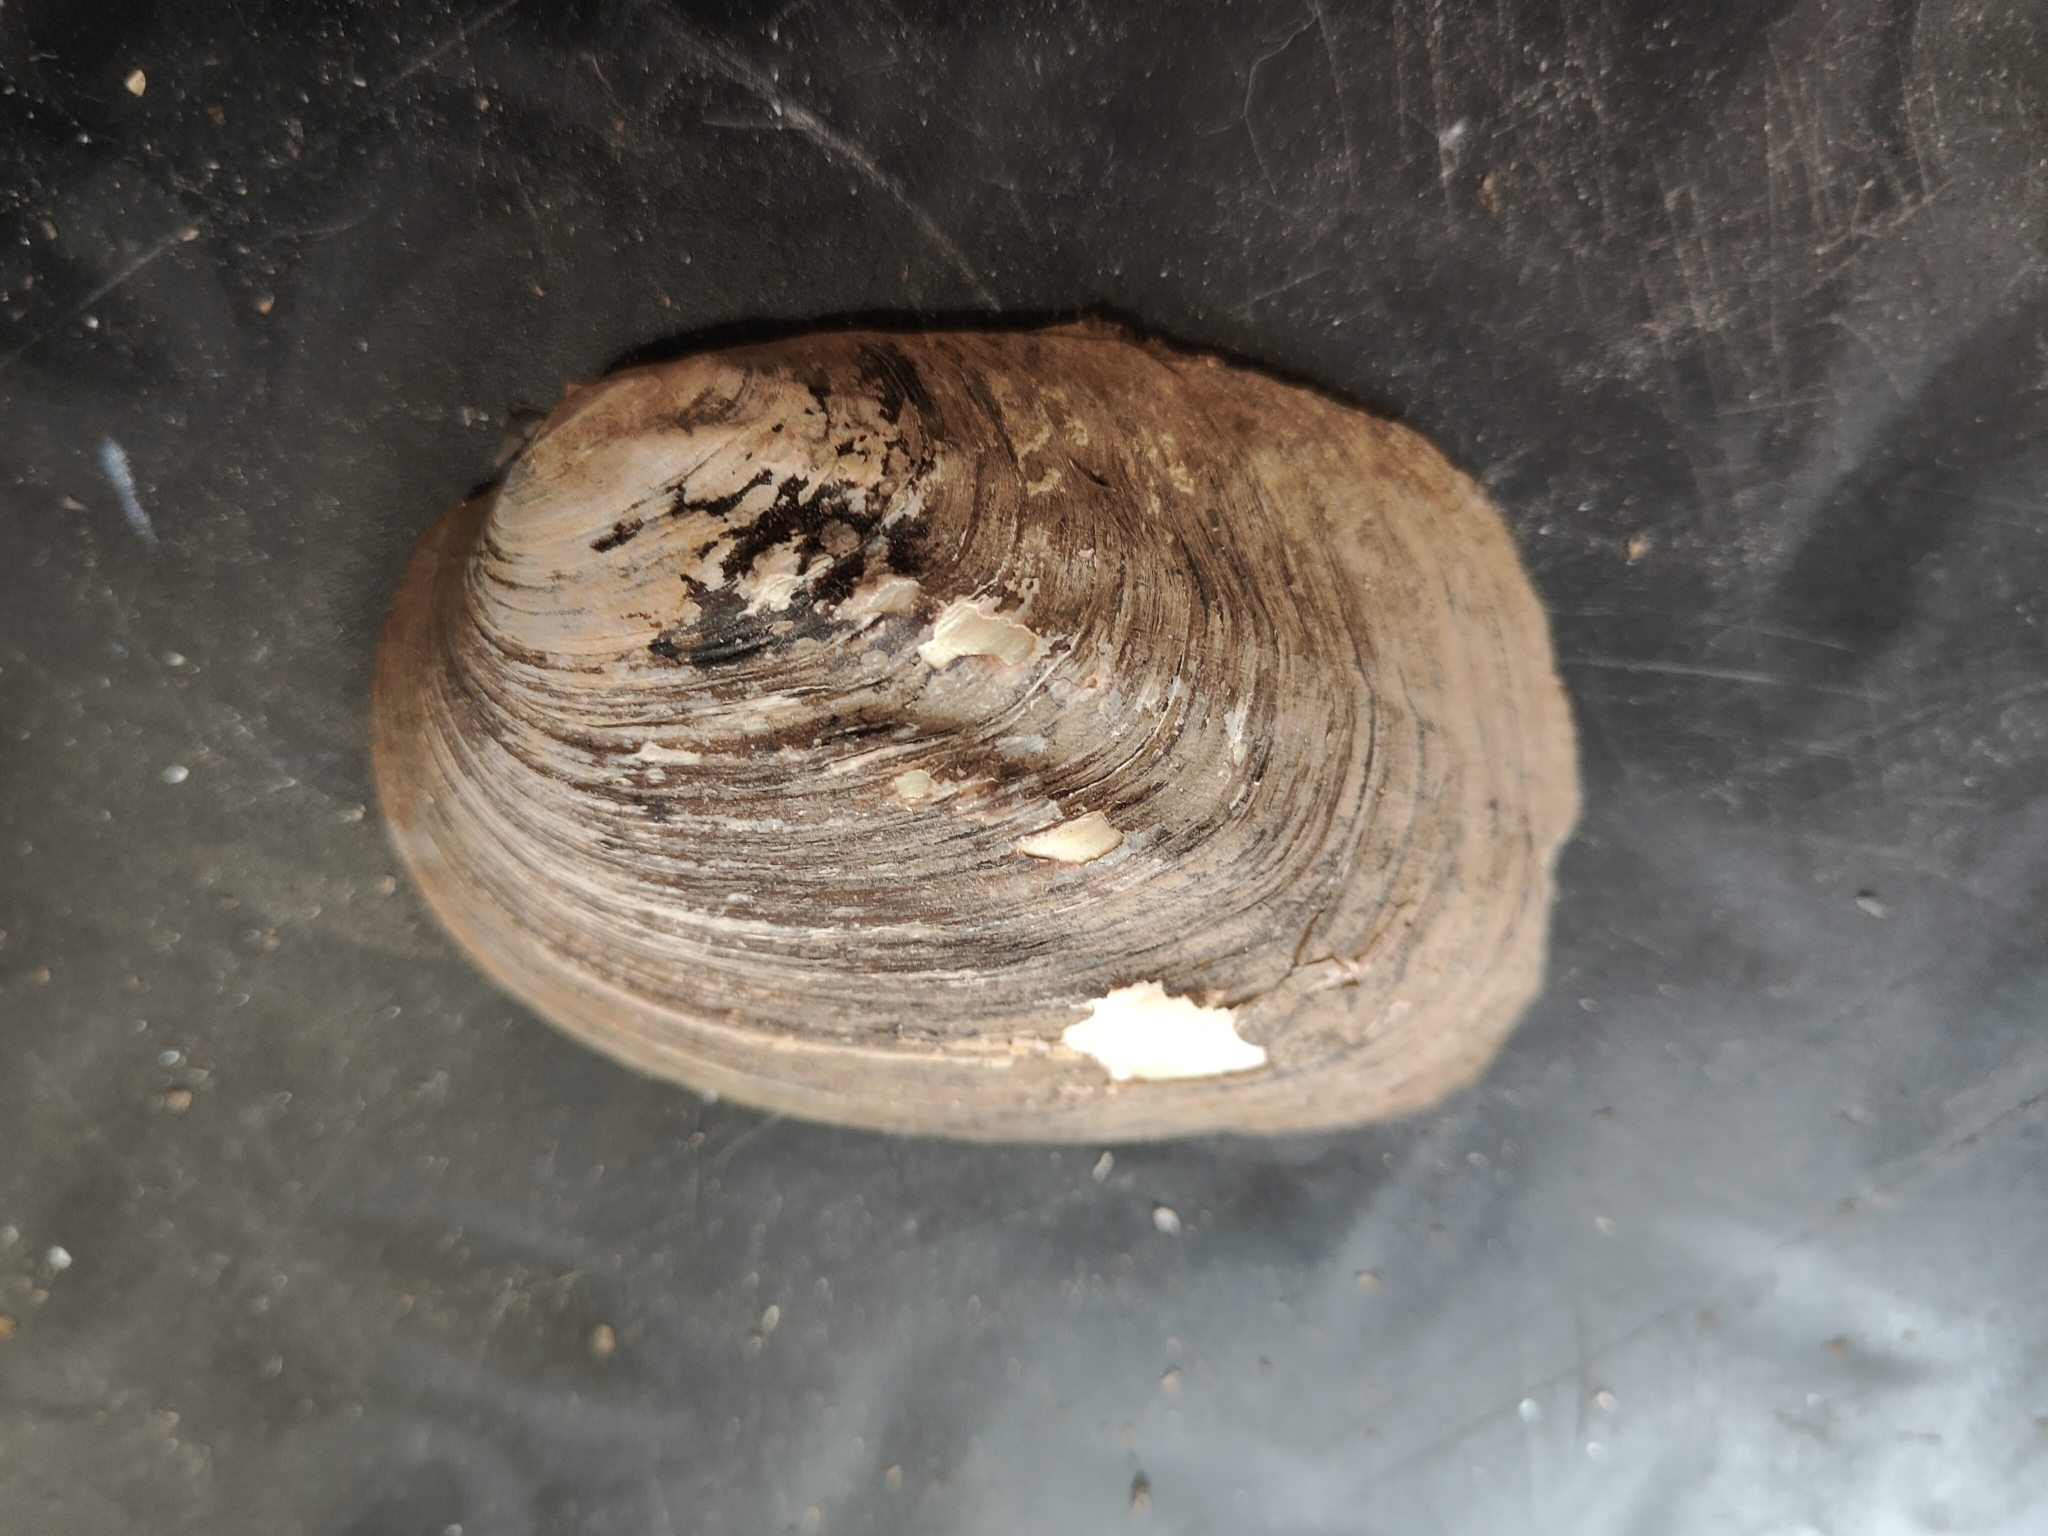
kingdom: Animalia
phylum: Mollusca
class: Bivalvia
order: Unionida
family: Unionidae
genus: Amblema
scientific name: Amblema plicata
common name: Threeridge
